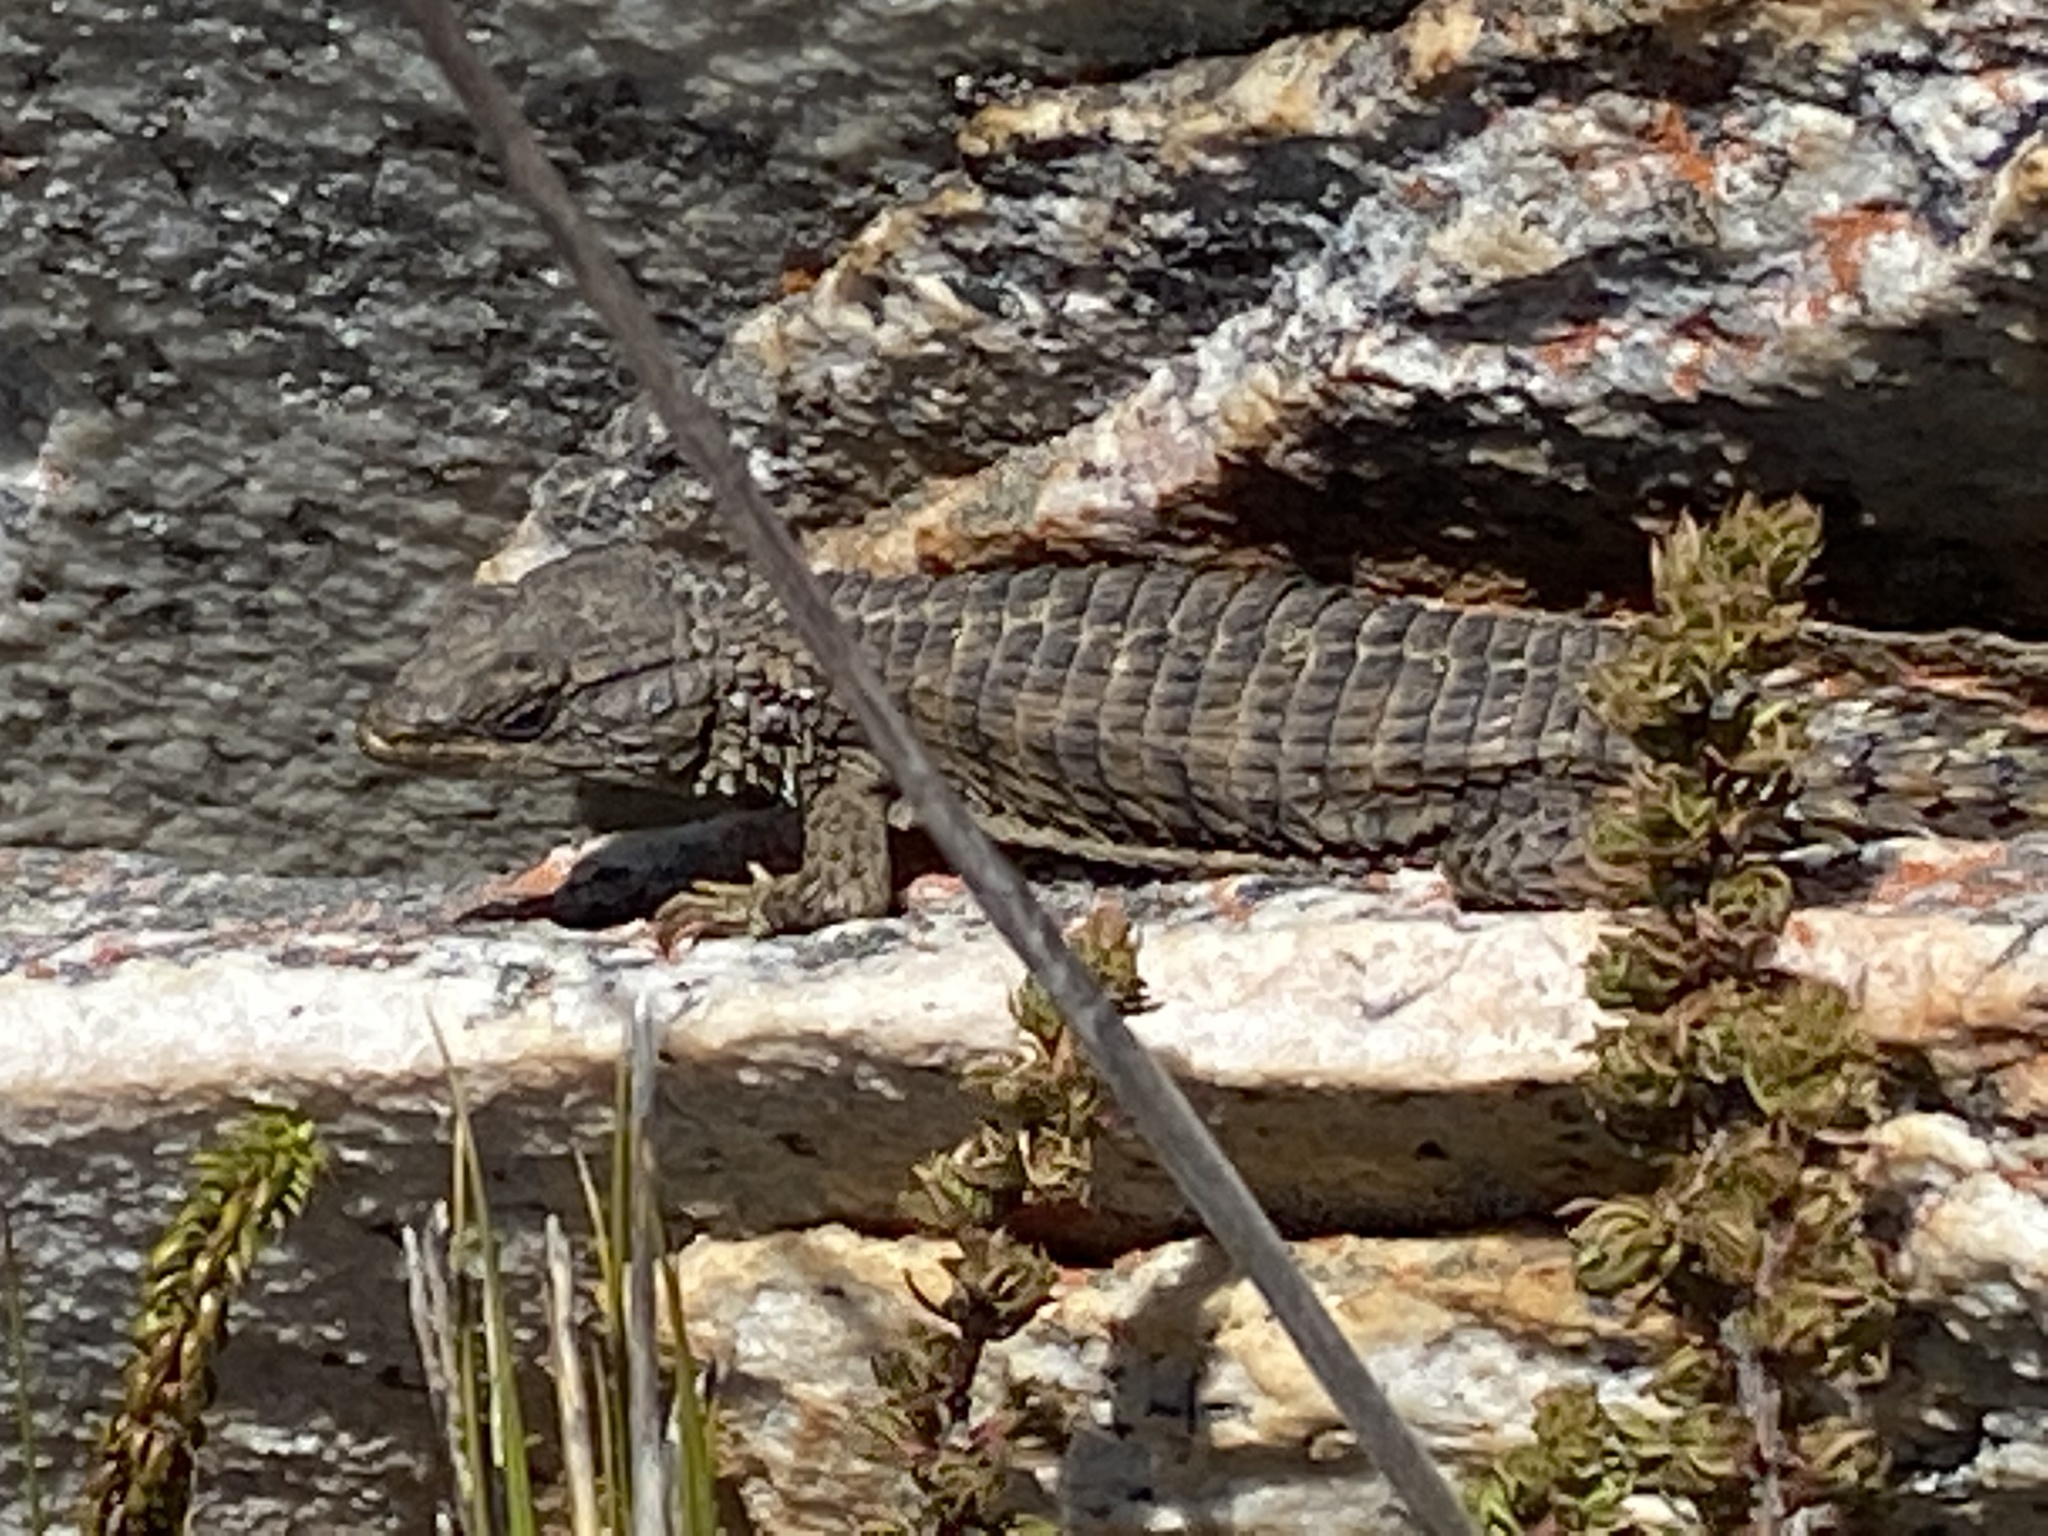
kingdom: Animalia
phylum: Chordata
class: Squamata
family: Cordylidae
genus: Cordylus
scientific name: Cordylus cordylus
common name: Cape girdled lizard
